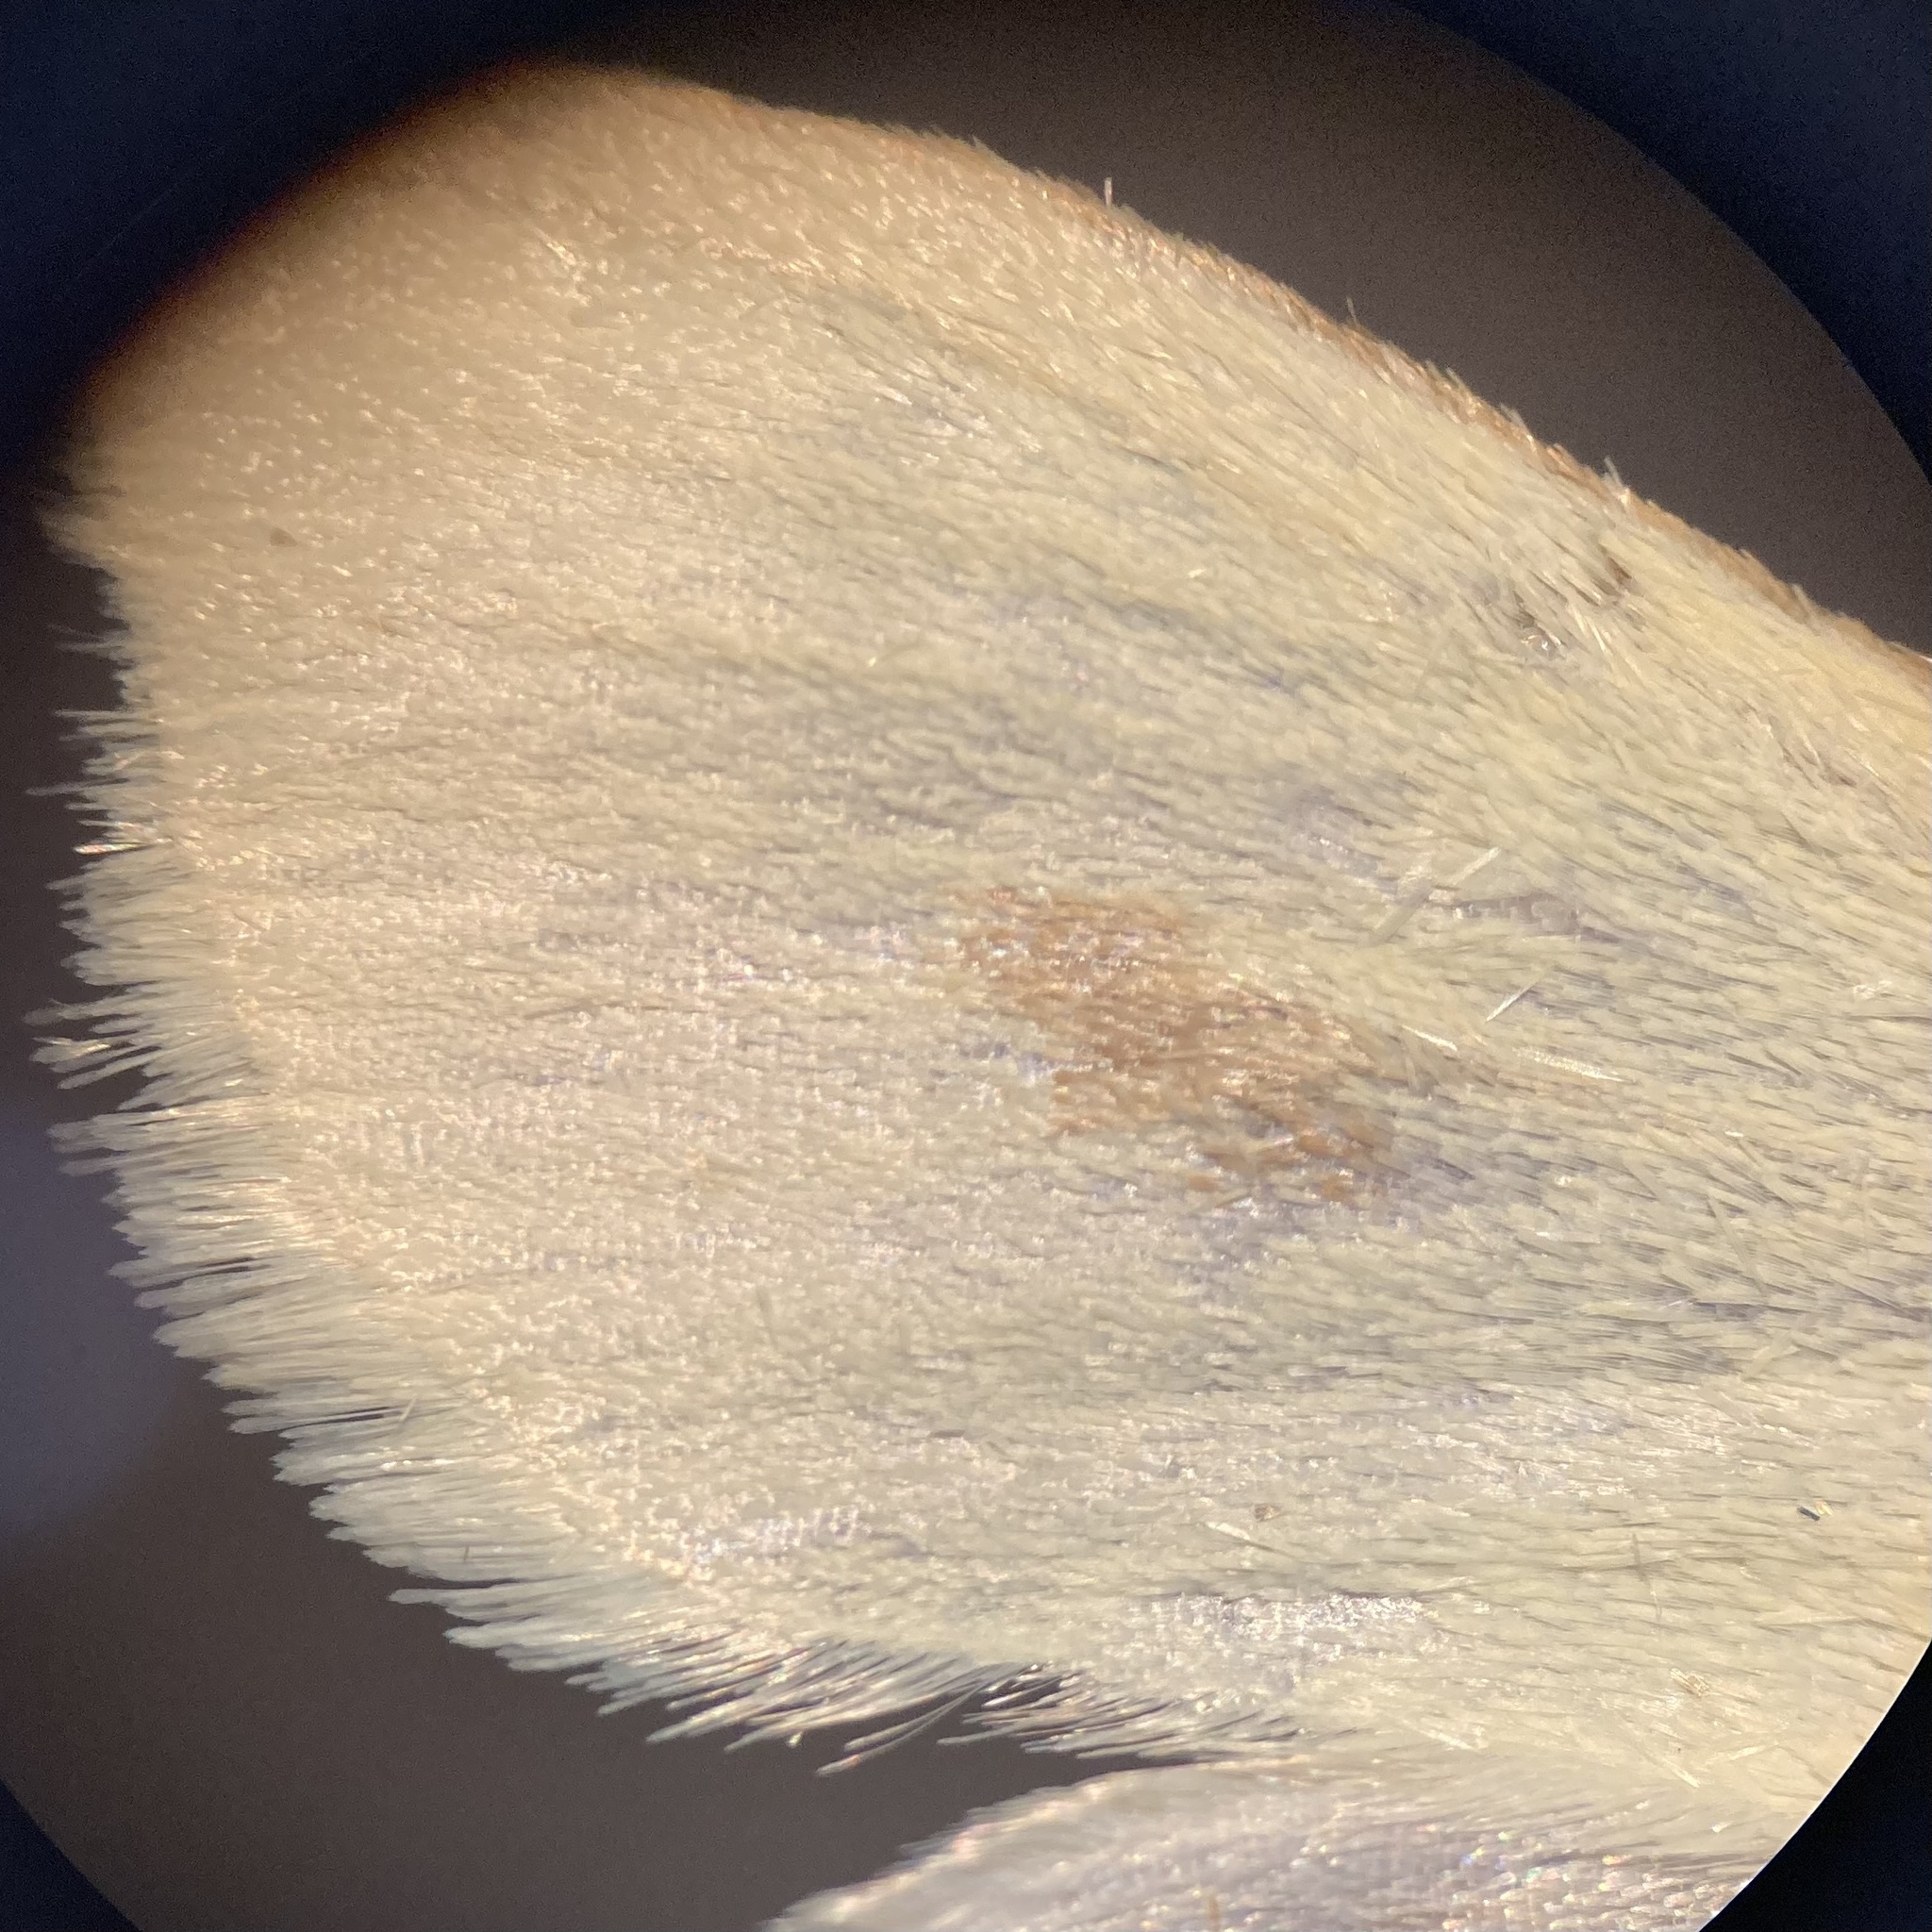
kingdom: Animalia
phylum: Arthropoda
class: Insecta
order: Lepidoptera
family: Crambidae
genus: Sitochroa
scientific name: Sitochroa palealis
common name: Greenish-yellow sitochroa moth
